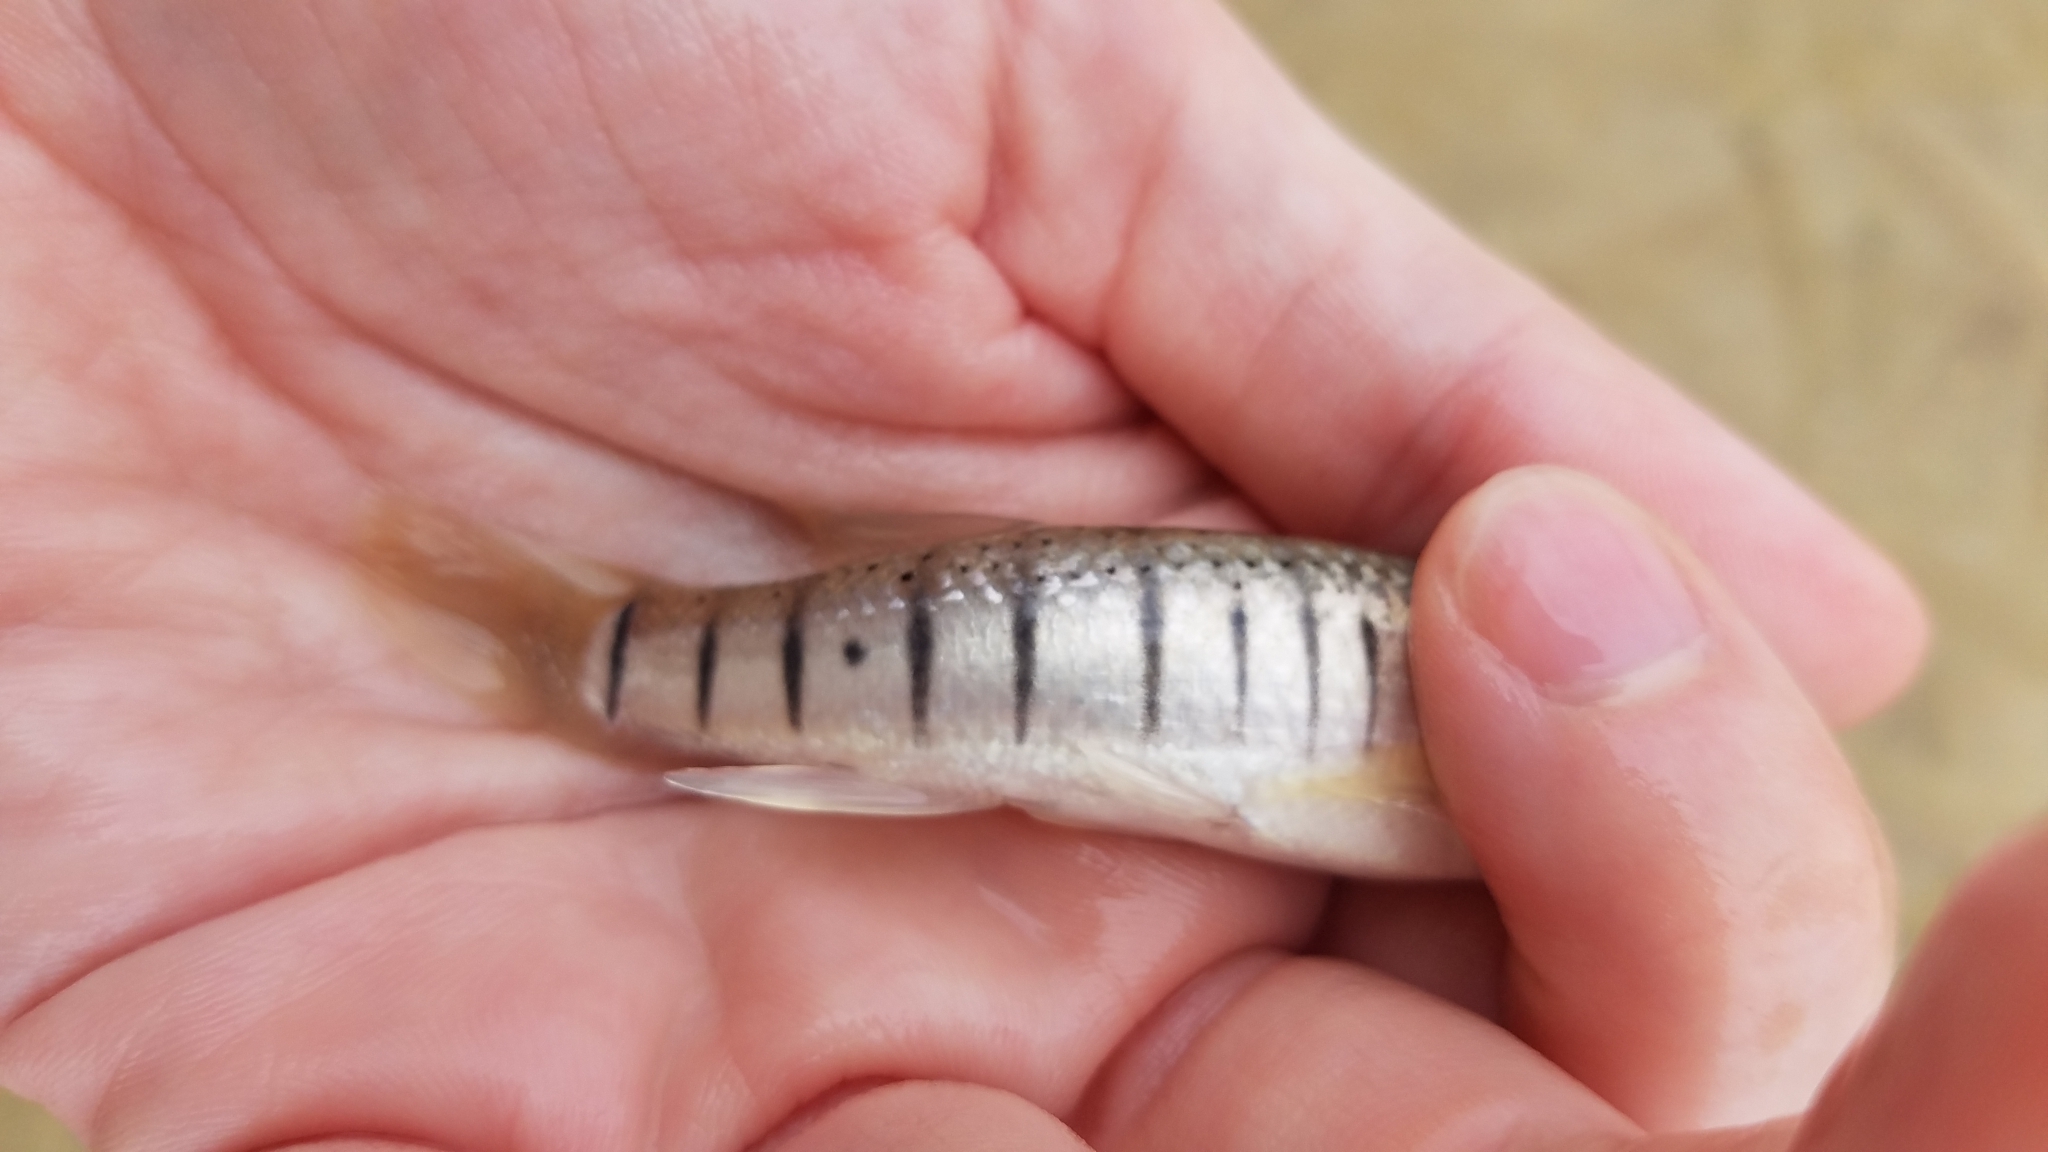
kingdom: Animalia
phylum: Chordata
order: Cyprinodontiformes
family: Fundulidae
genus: Fundulus
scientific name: Fundulus majalis
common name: Striped killifish
